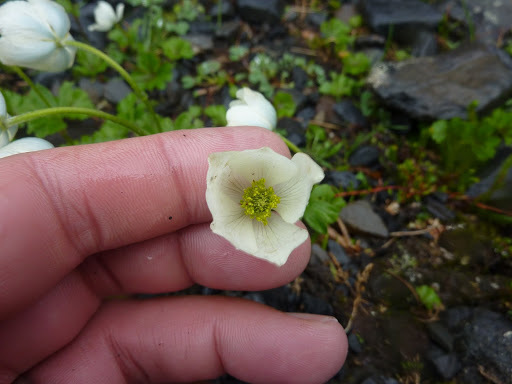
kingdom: Plantae
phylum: Tracheophyta
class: Magnoliopsida
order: Ranunculales
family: Ranunculaceae
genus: Anemone
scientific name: Anemone parviflora
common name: Northern anemone
